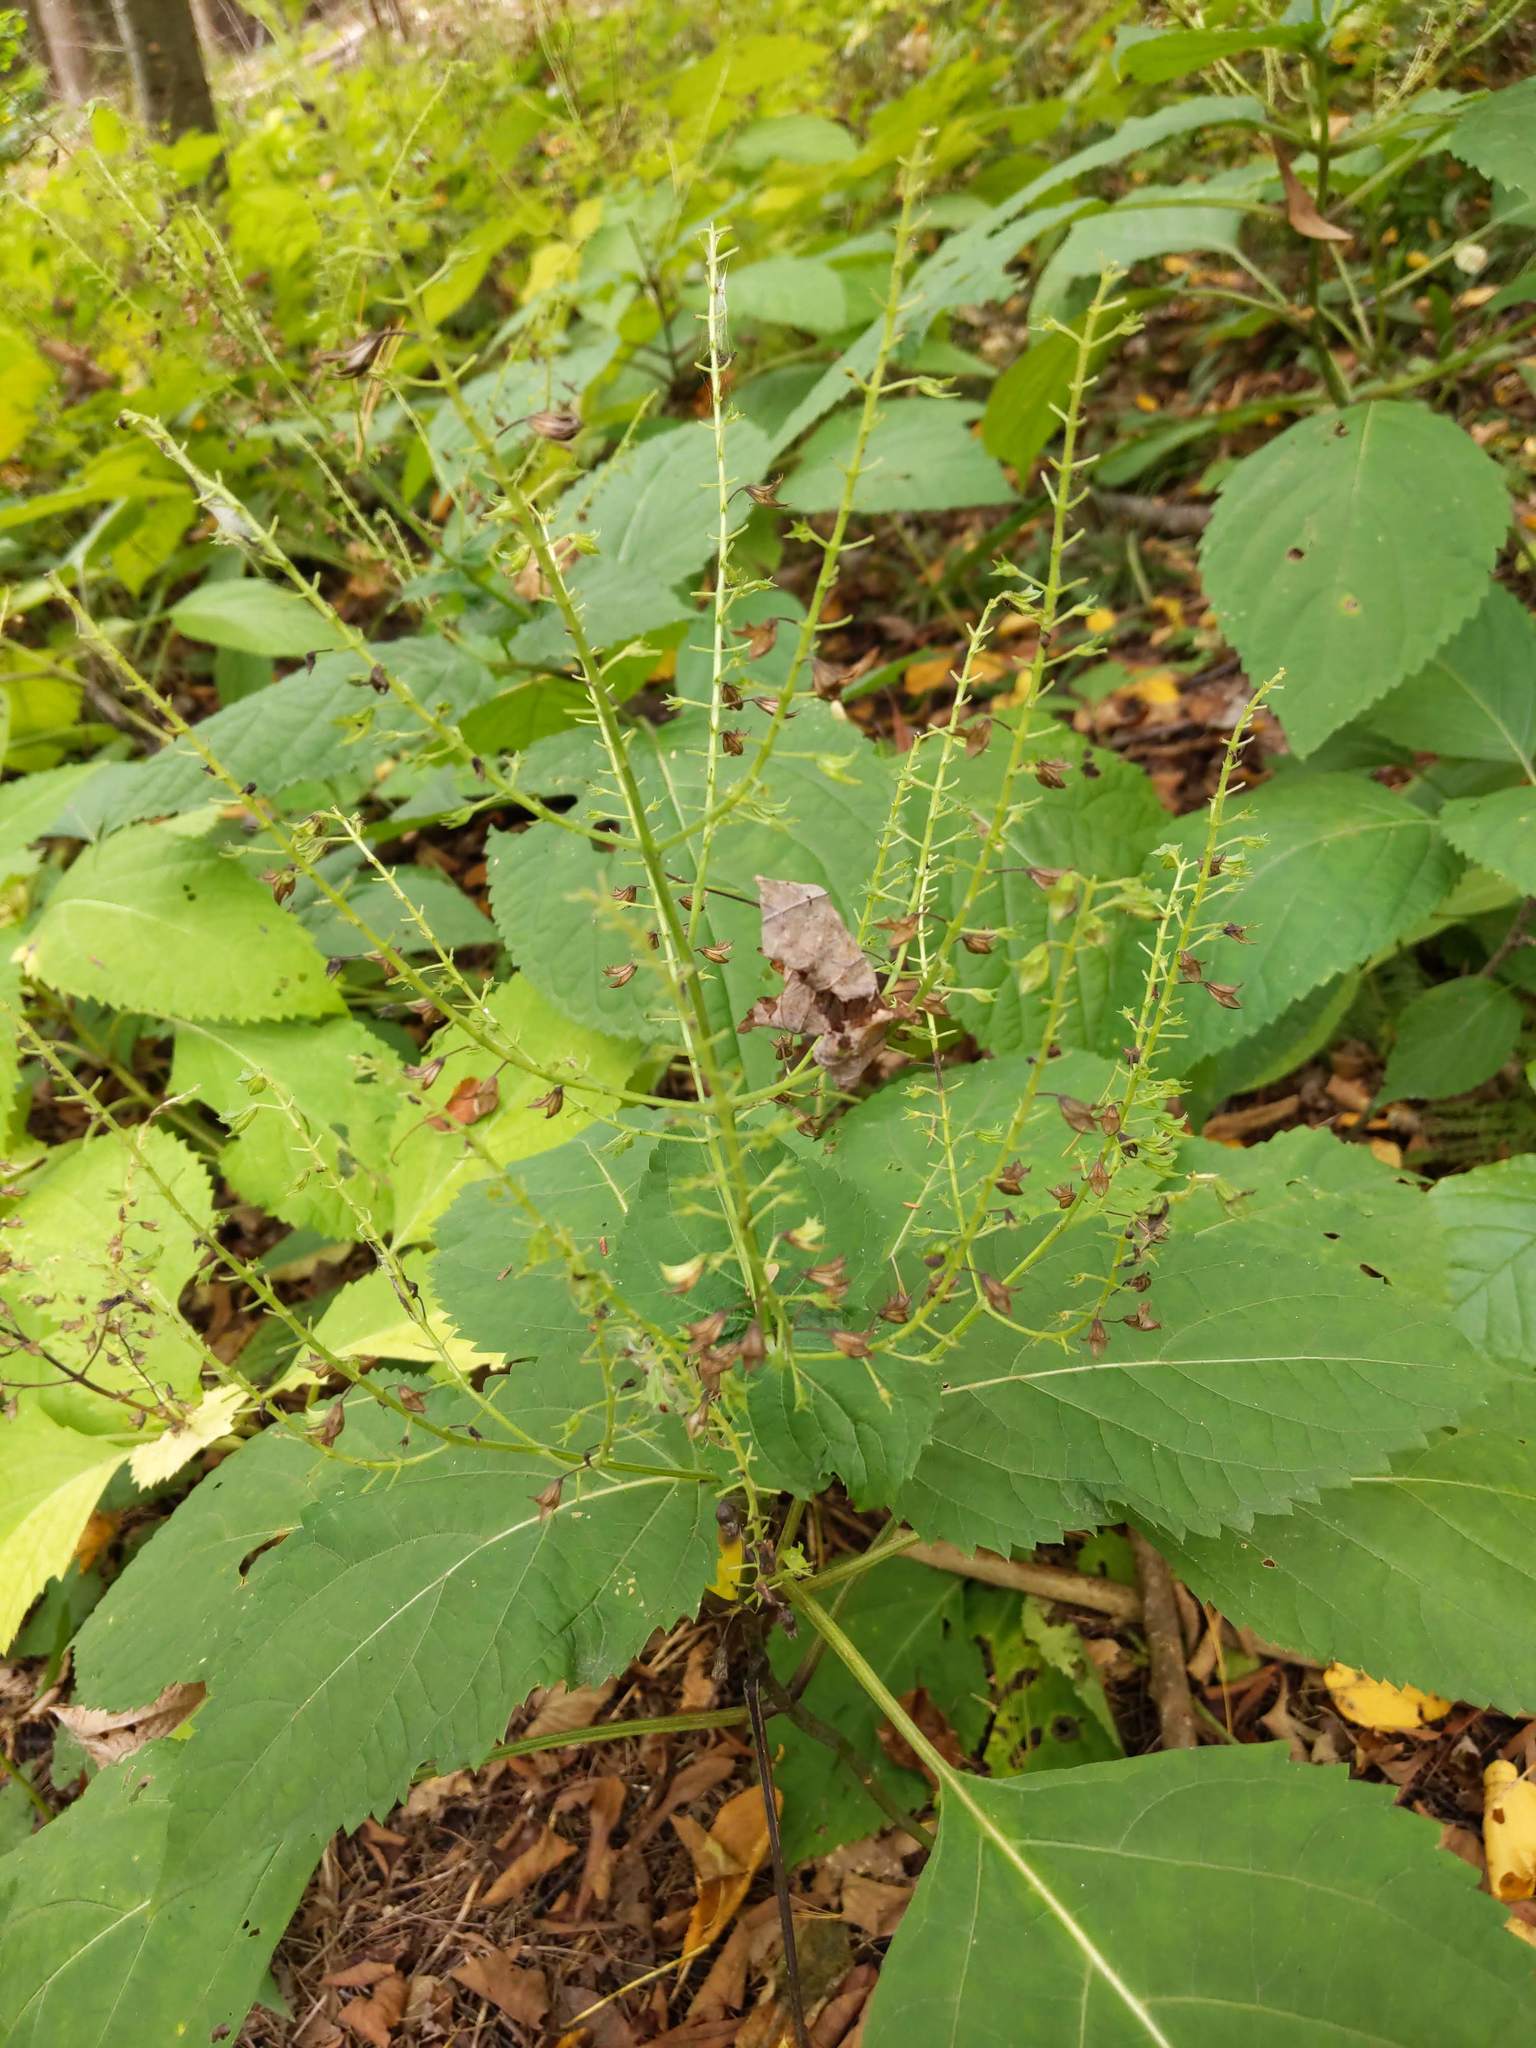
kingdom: Plantae
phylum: Tracheophyta
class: Magnoliopsida
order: Lamiales
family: Lamiaceae
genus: Collinsonia
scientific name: Collinsonia canadensis
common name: Northern horsebalm
